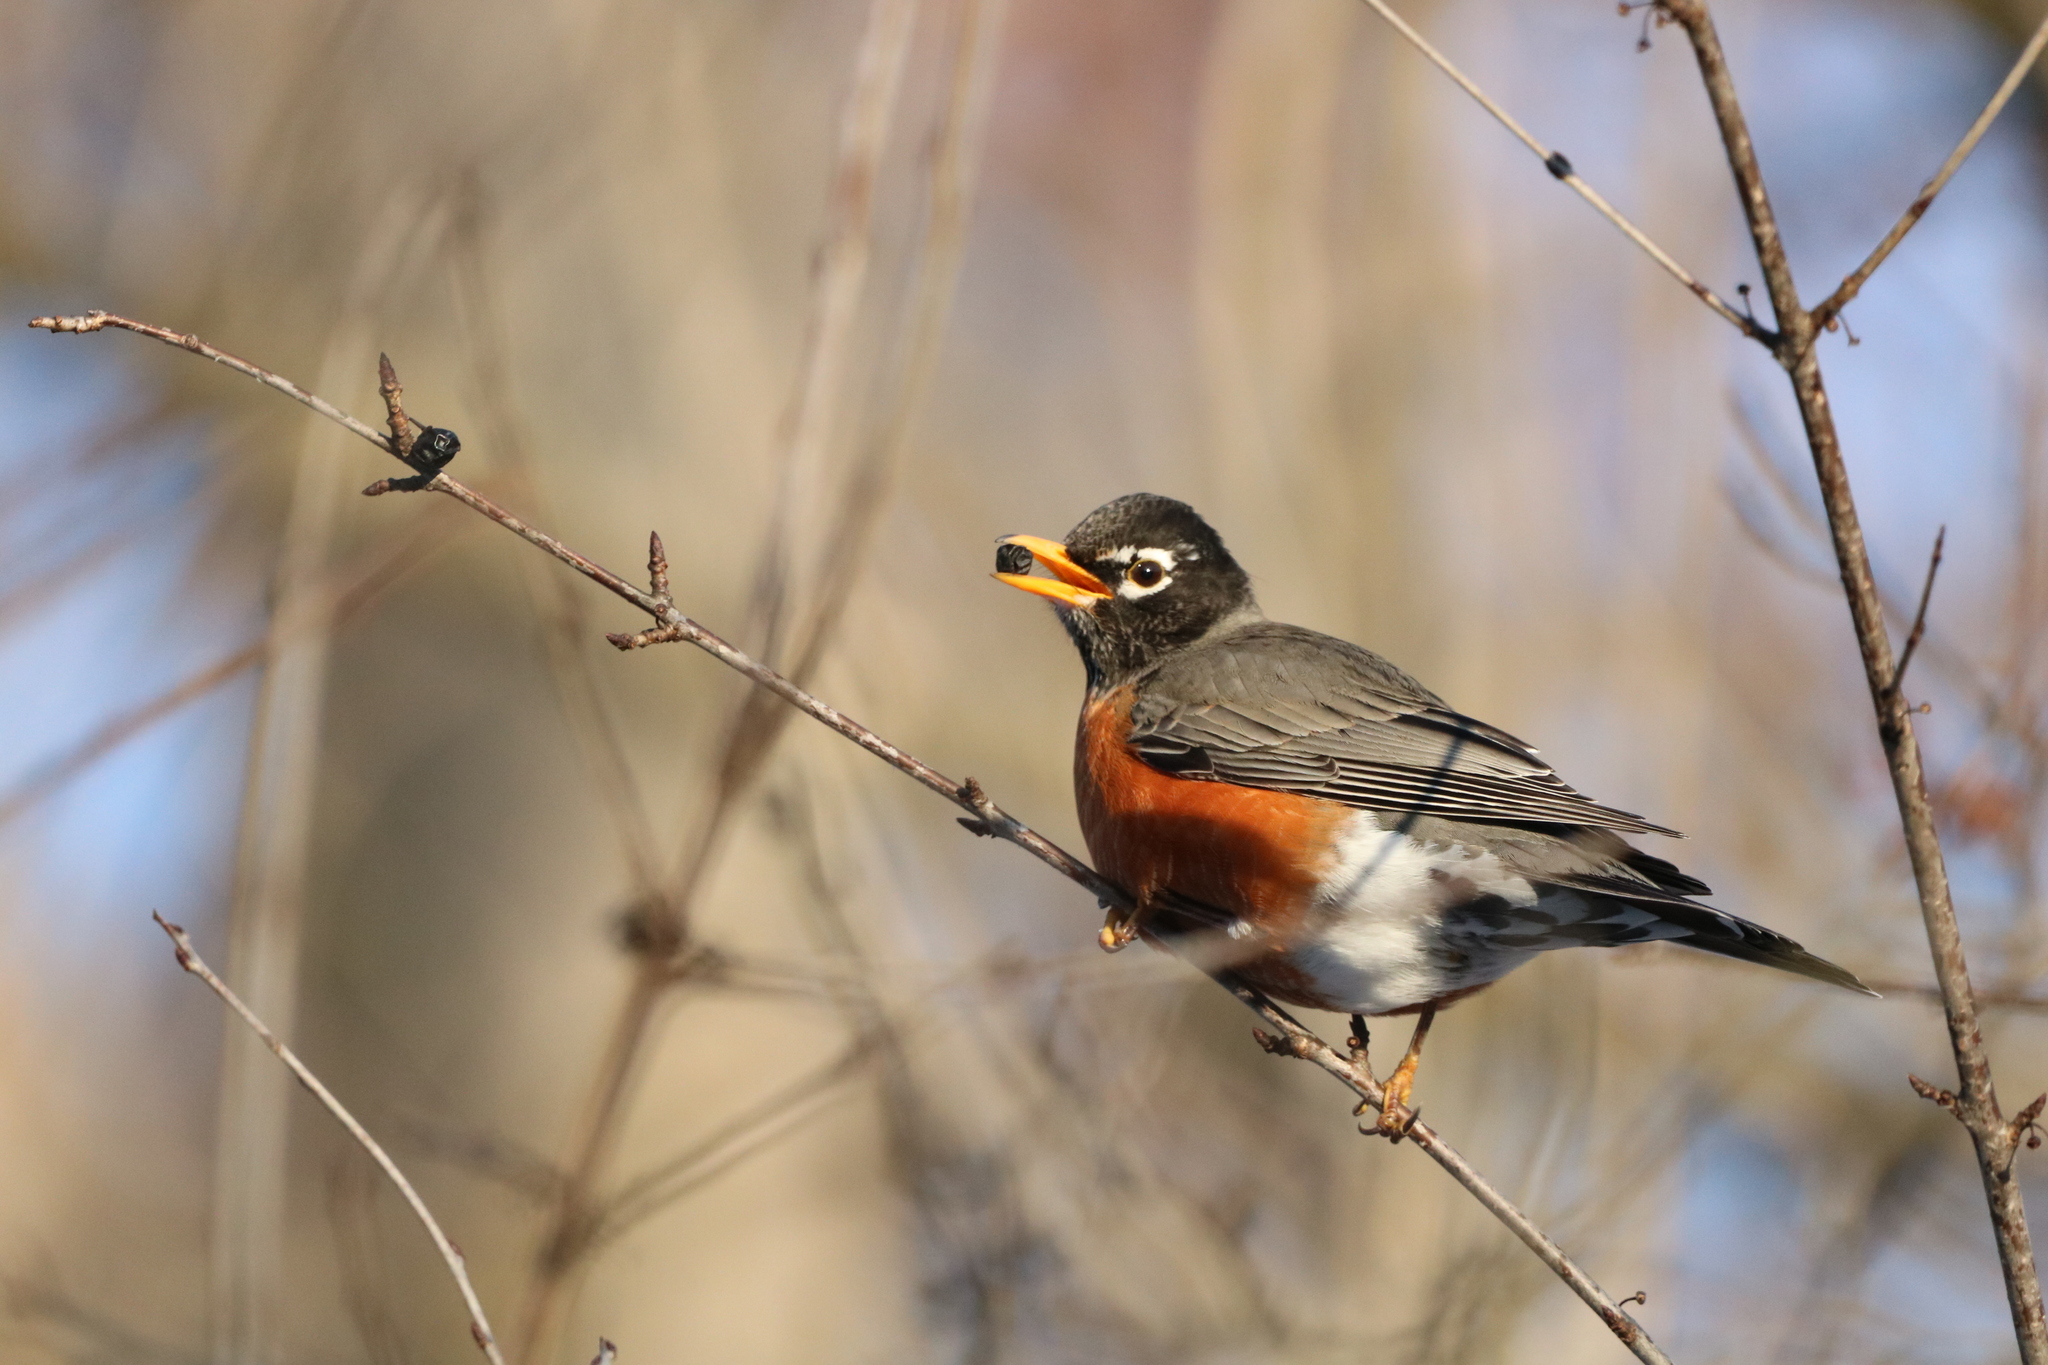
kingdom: Animalia
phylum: Chordata
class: Aves
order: Passeriformes
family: Turdidae
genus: Turdus
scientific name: Turdus migratorius
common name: American robin
